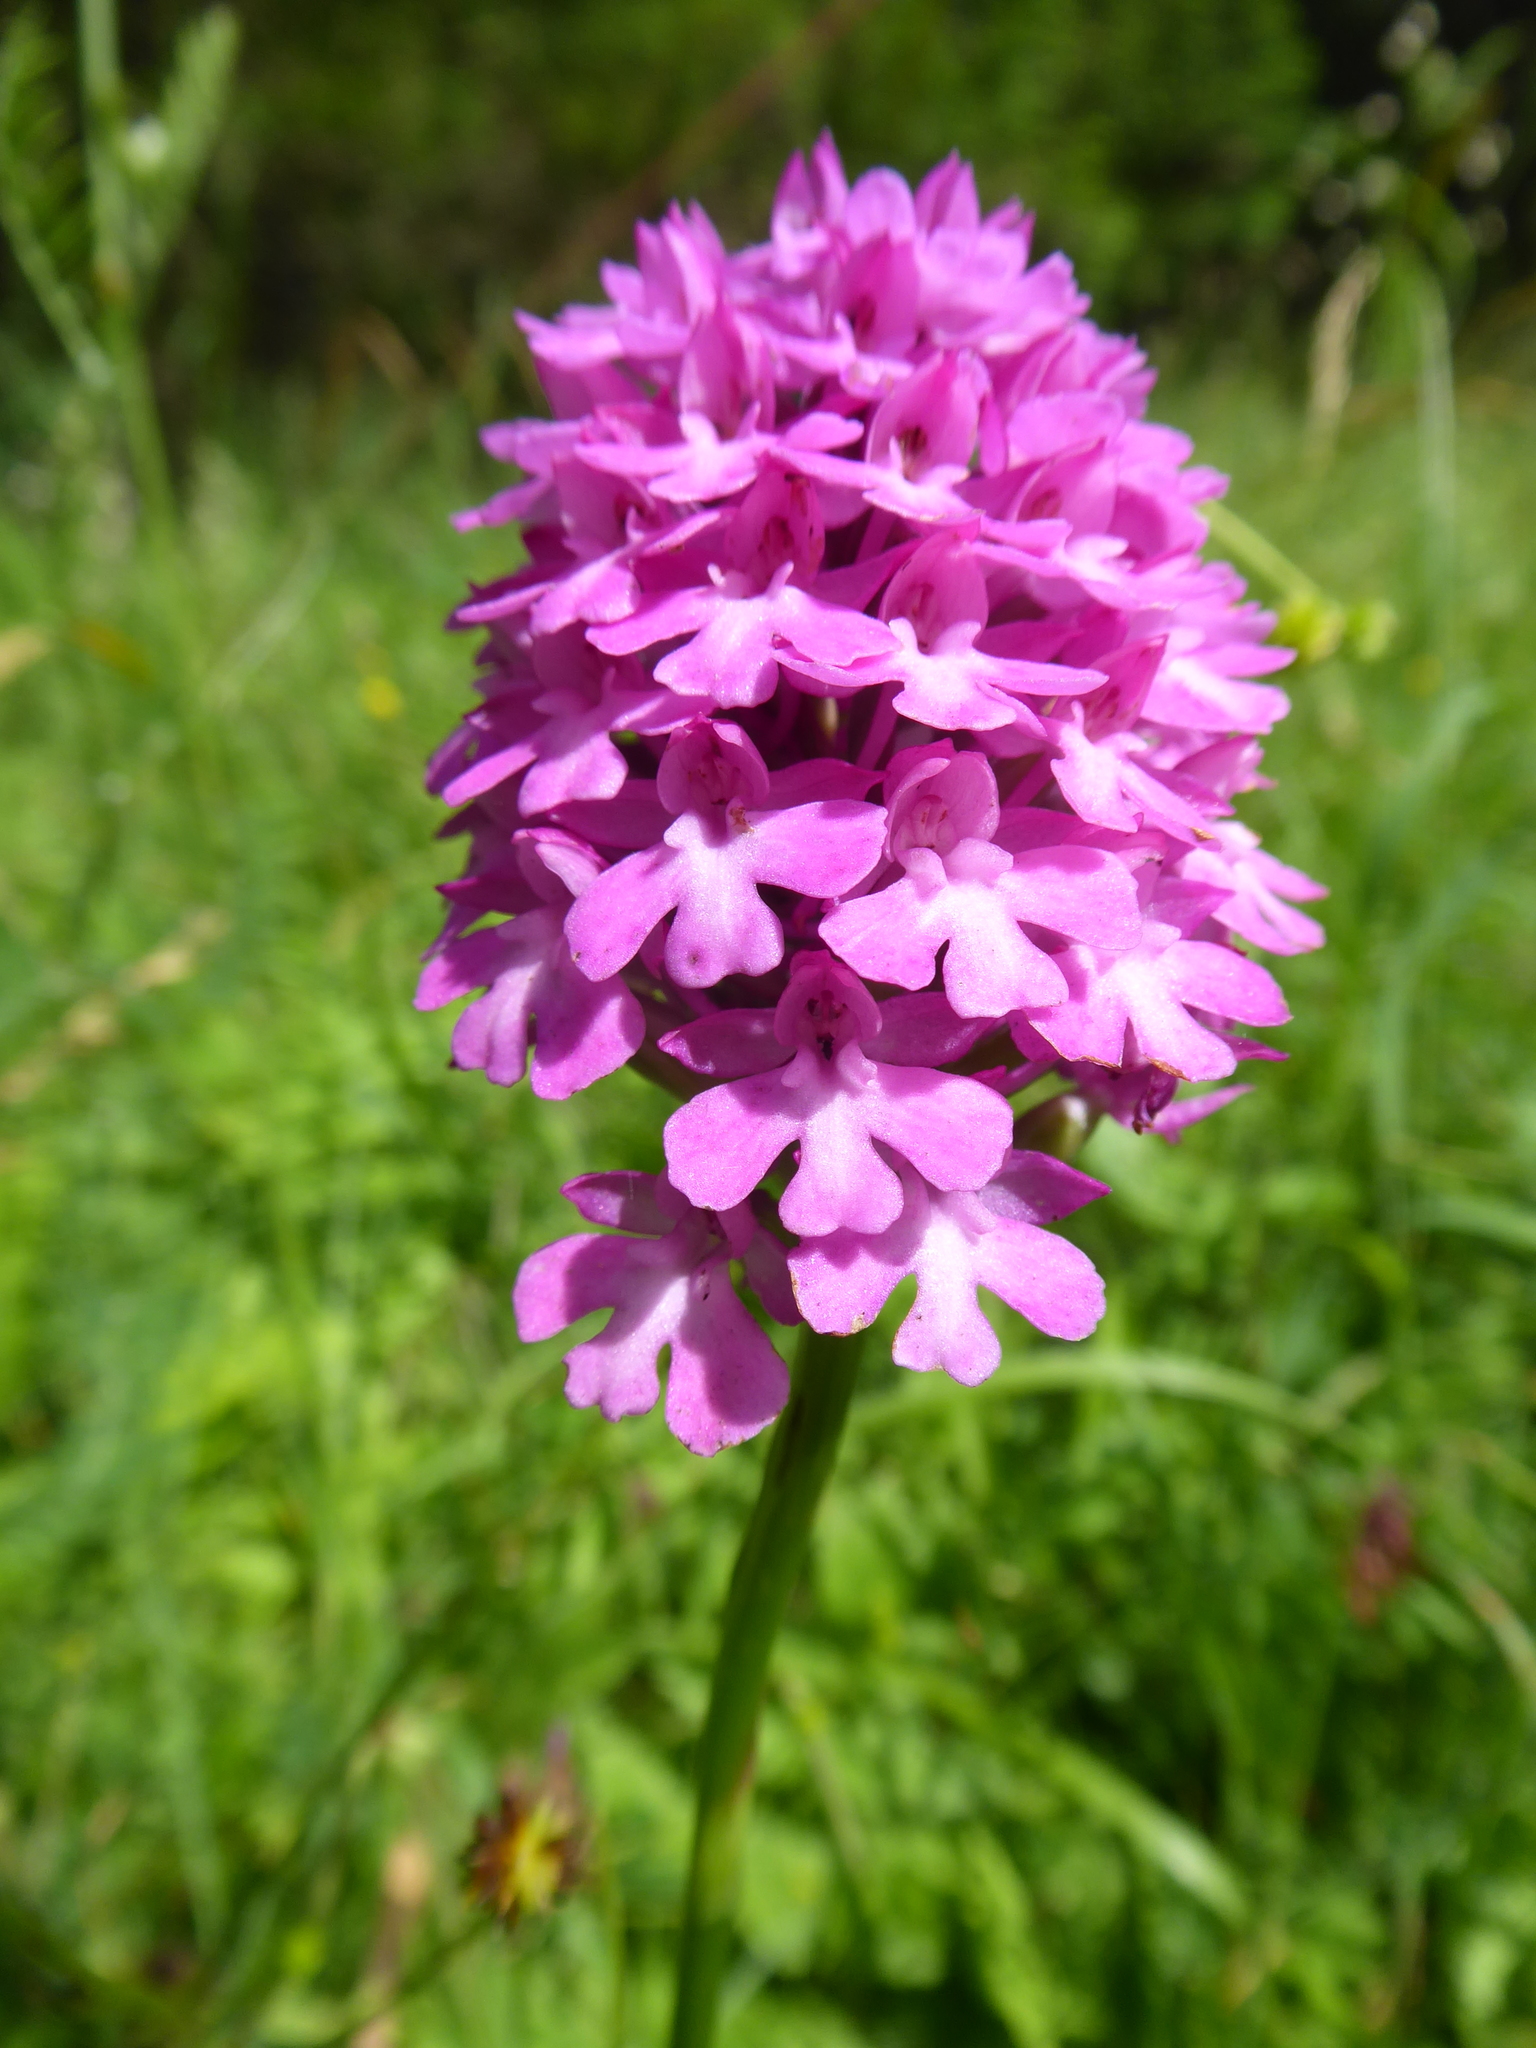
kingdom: Plantae
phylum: Tracheophyta
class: Liliopsida
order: Asparagales
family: Orchidaceae
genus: Anacamptis
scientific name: Anacamptis pyramidalis
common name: Pyramidal orchid
